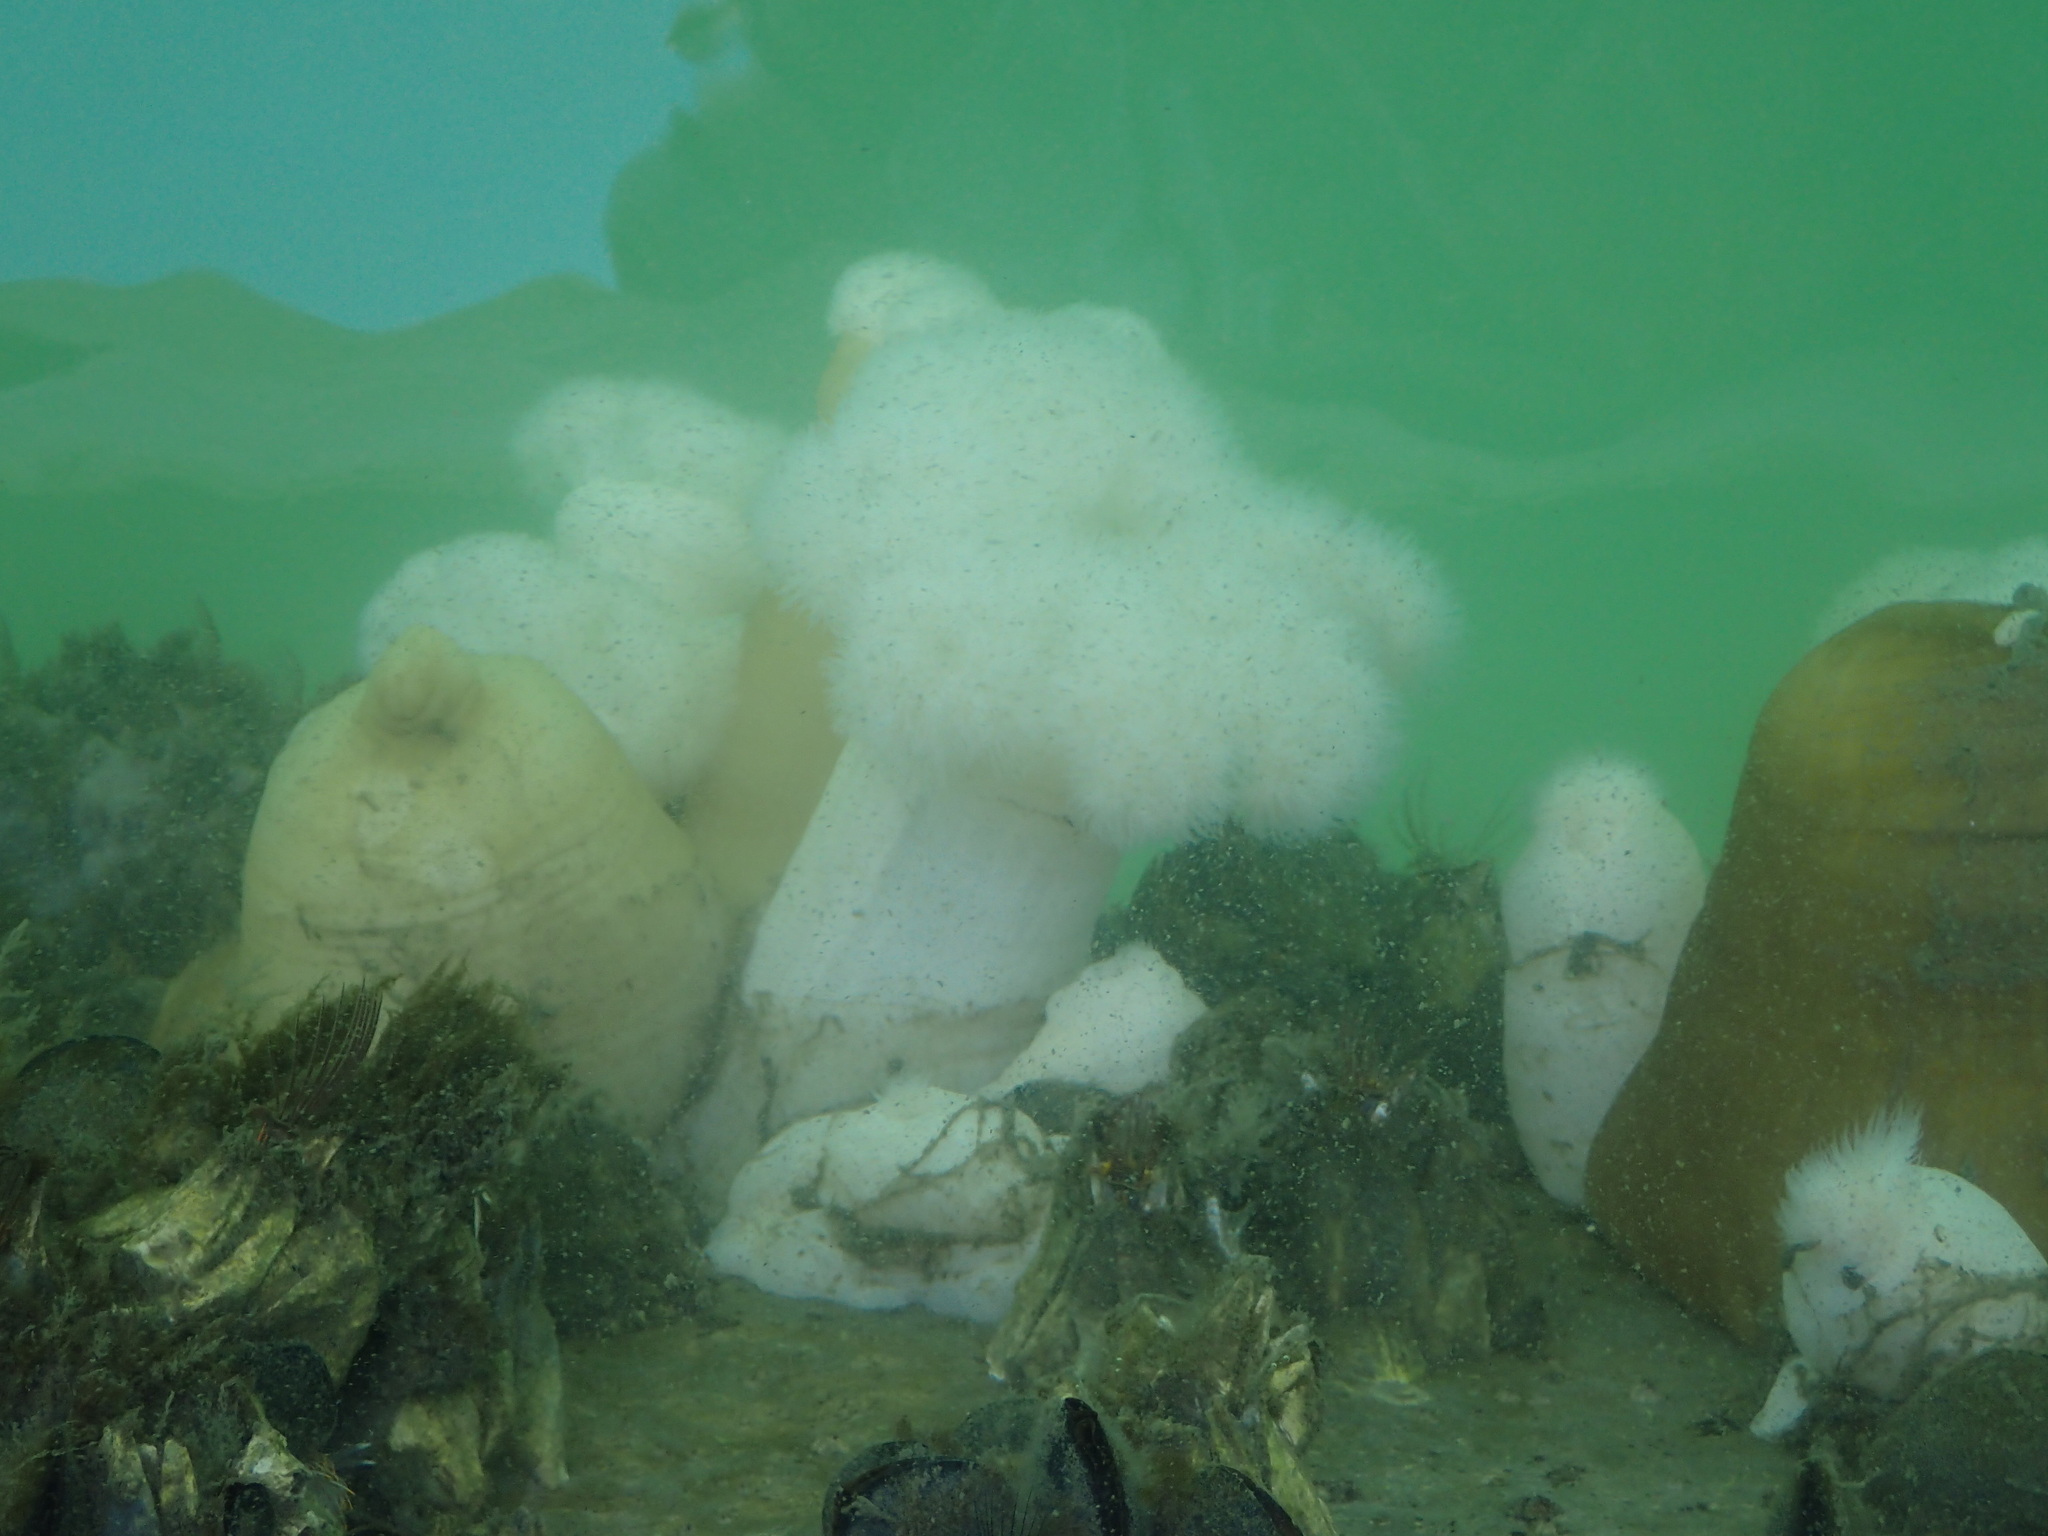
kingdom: Animalia
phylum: Cnidaria
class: Anthozoa
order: Actiniaria
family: Metridiidae
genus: Metridium
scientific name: Metridium farcimen
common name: Gigantic anemone
